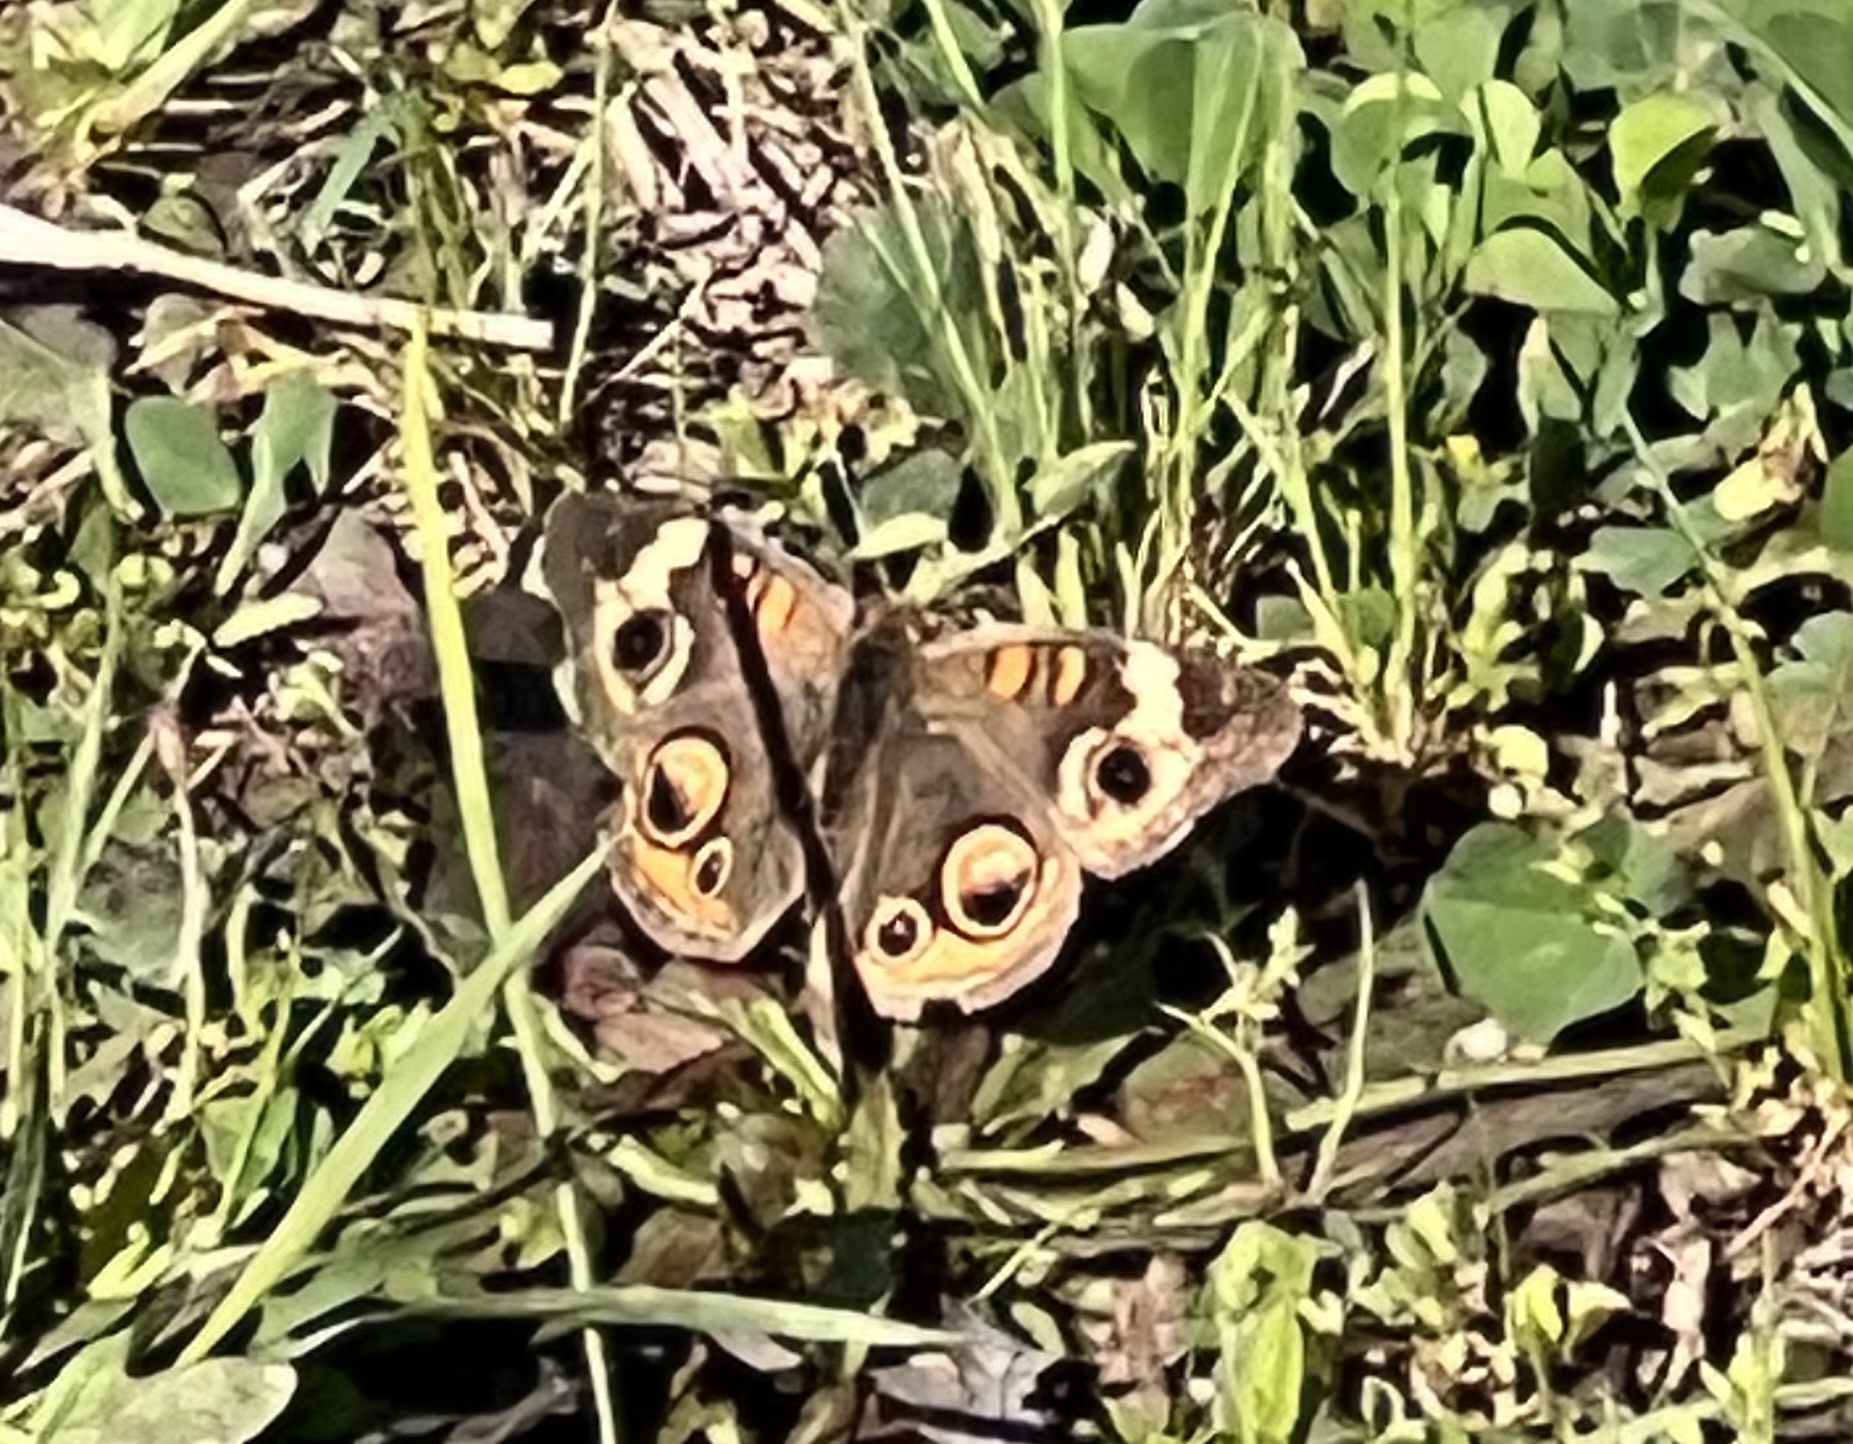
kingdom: Animalia
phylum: Arthropoda
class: Insecta
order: Lepidoptera
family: Nymphalidae
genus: Junonia
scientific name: Junonia coenia
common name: Common buckeye
